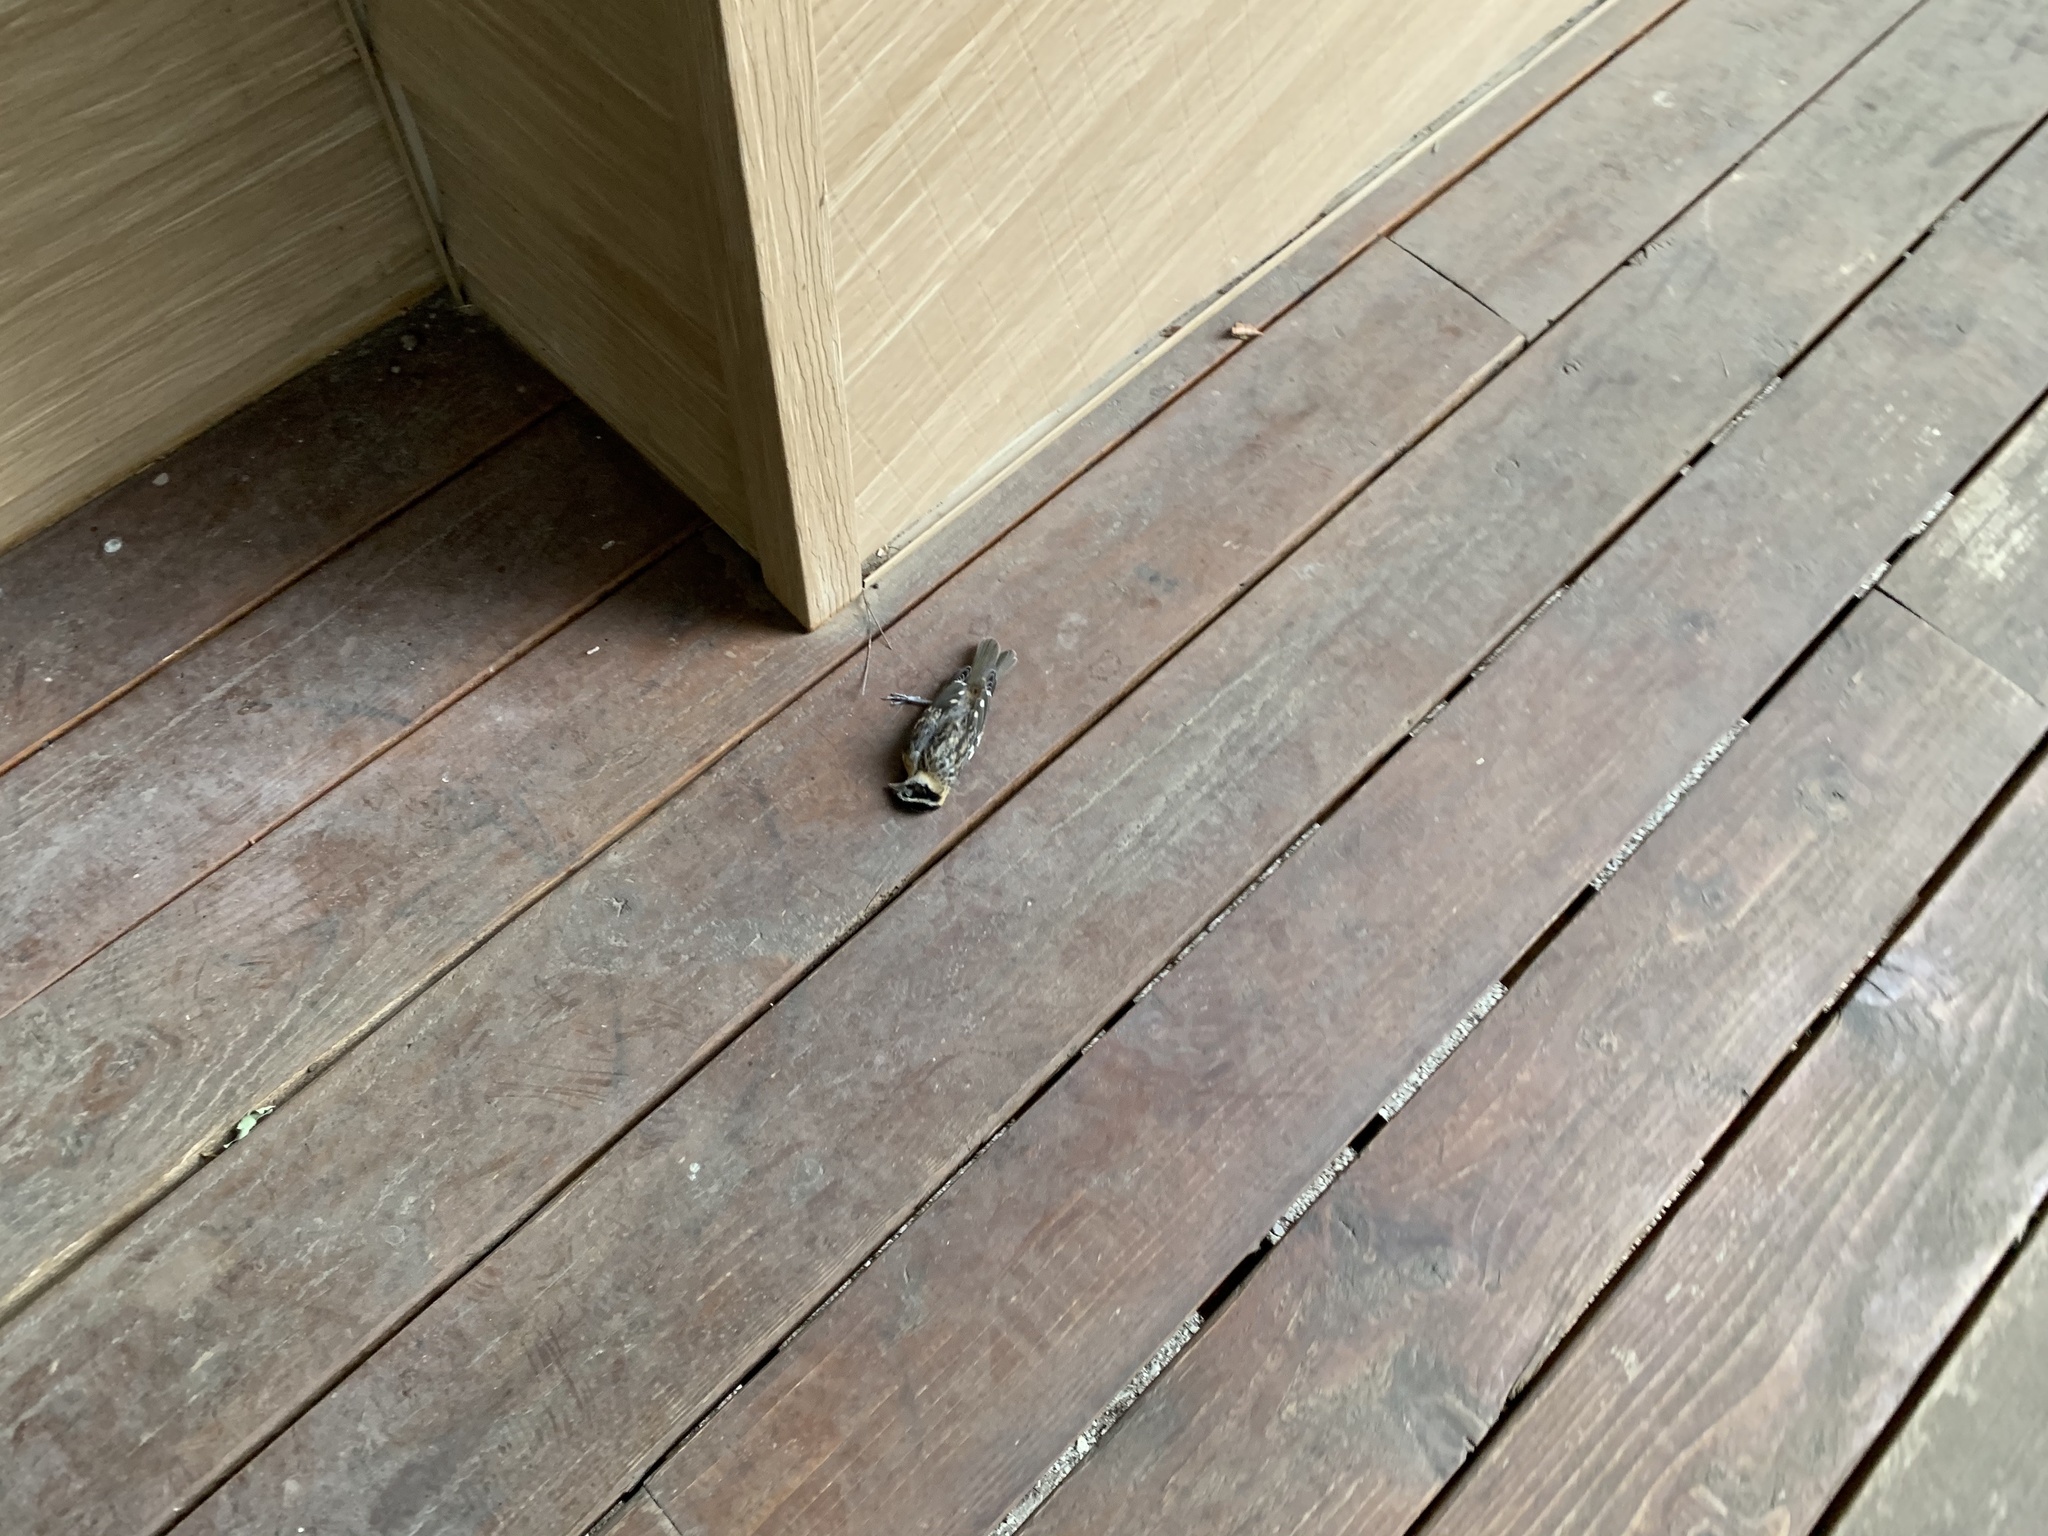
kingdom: Animalia
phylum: Chordata
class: Aves
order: Passeriformes
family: Cardinalidae
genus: Pheucticus
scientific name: Pheucticus melanocephalus
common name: Black-headed grosbeak
